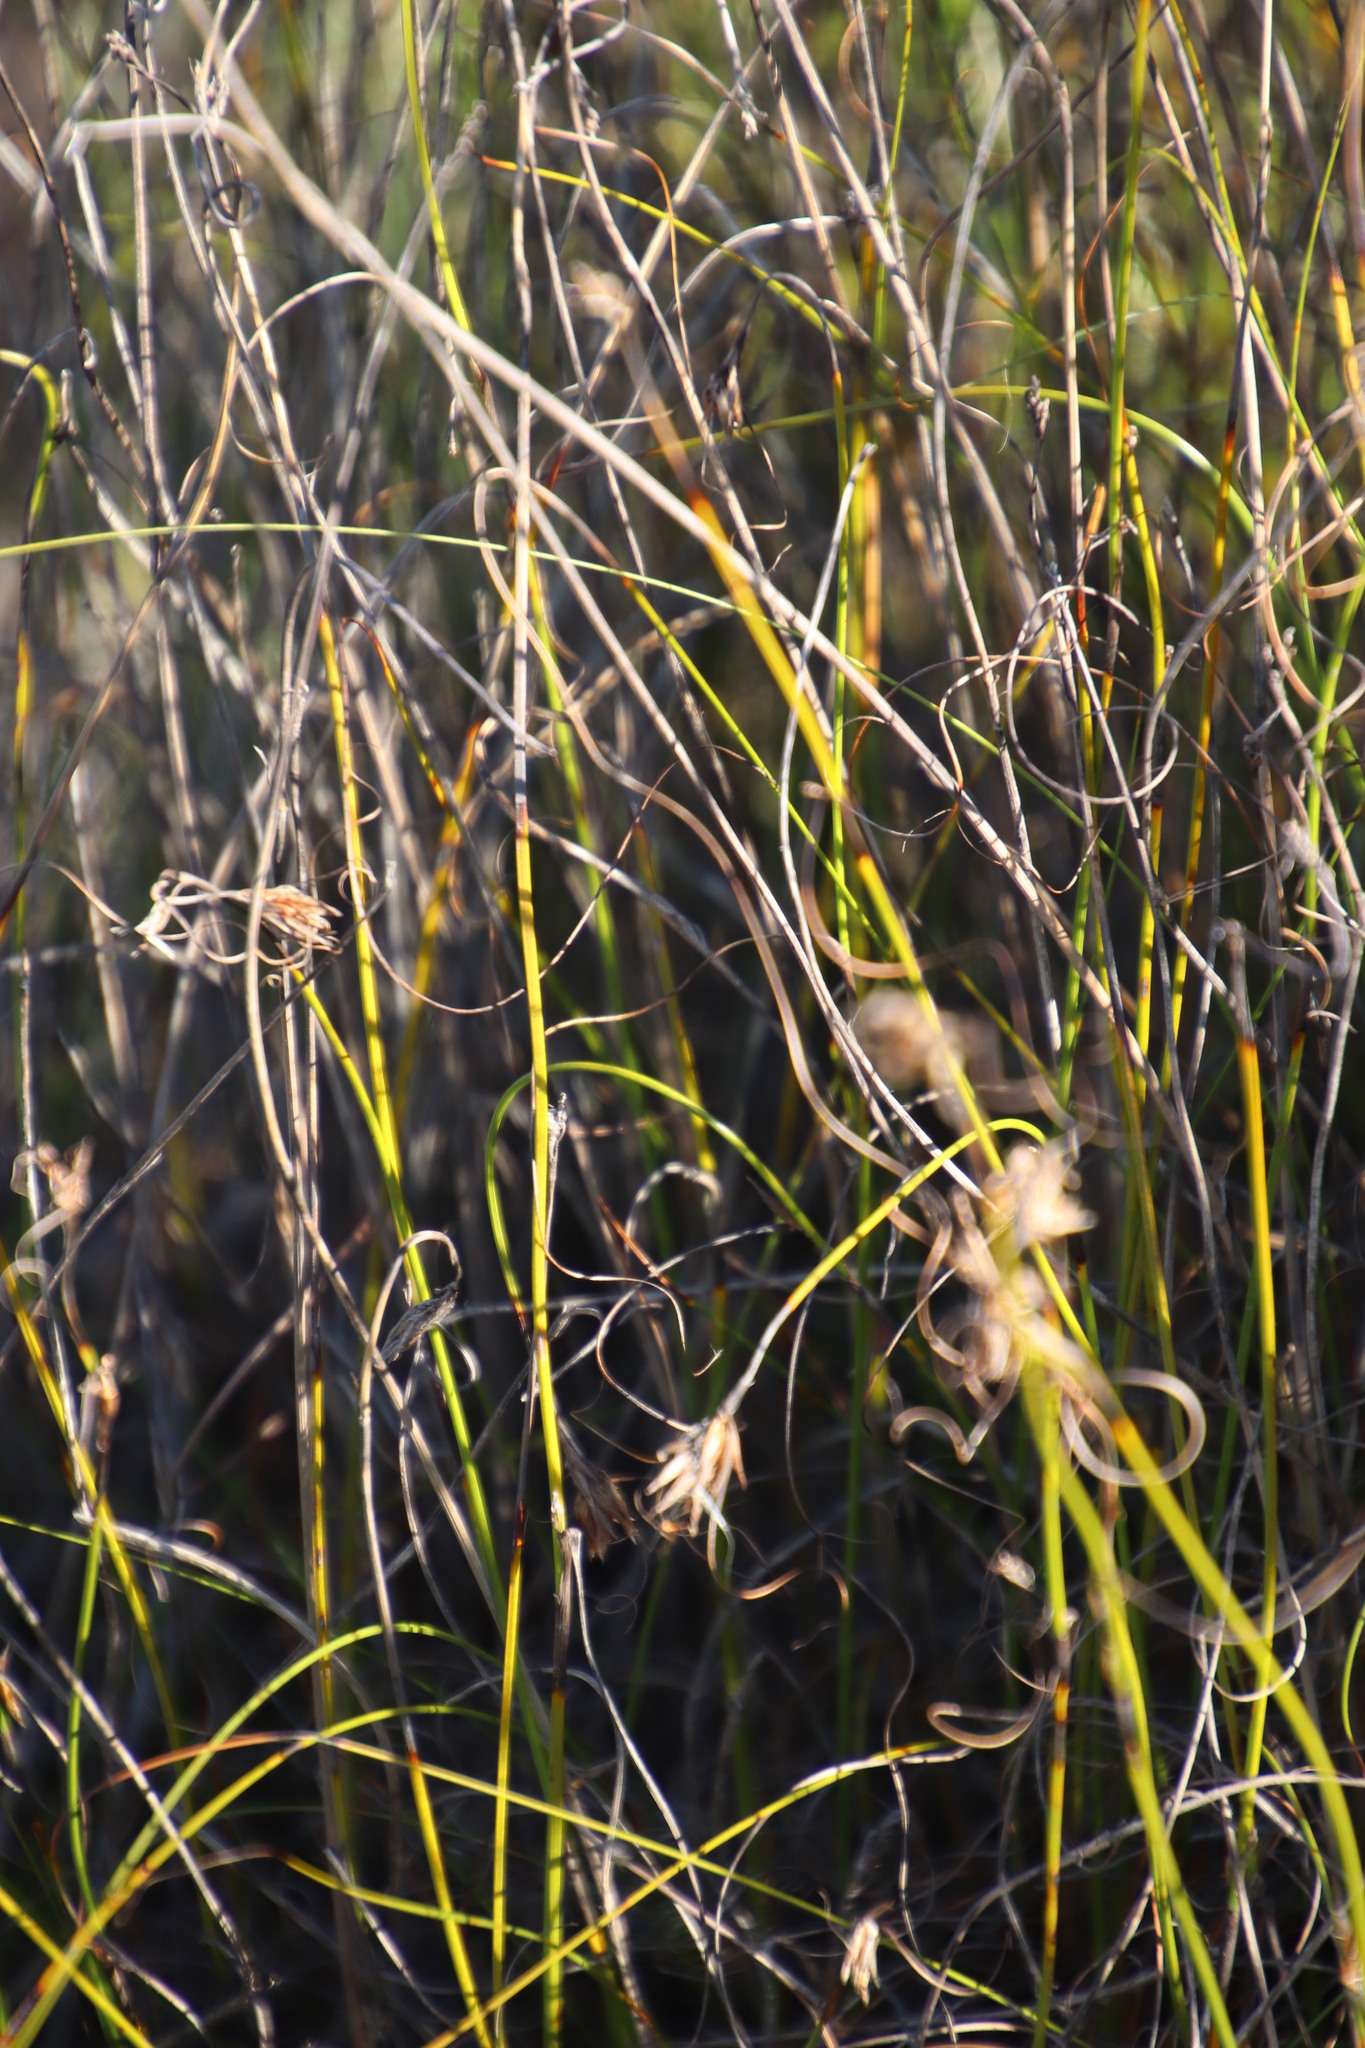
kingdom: Plantae
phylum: Tracheophyta
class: Liliopsida
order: Poales
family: Cyperaceae
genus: Tetraria
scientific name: Tetraria crinifolia
